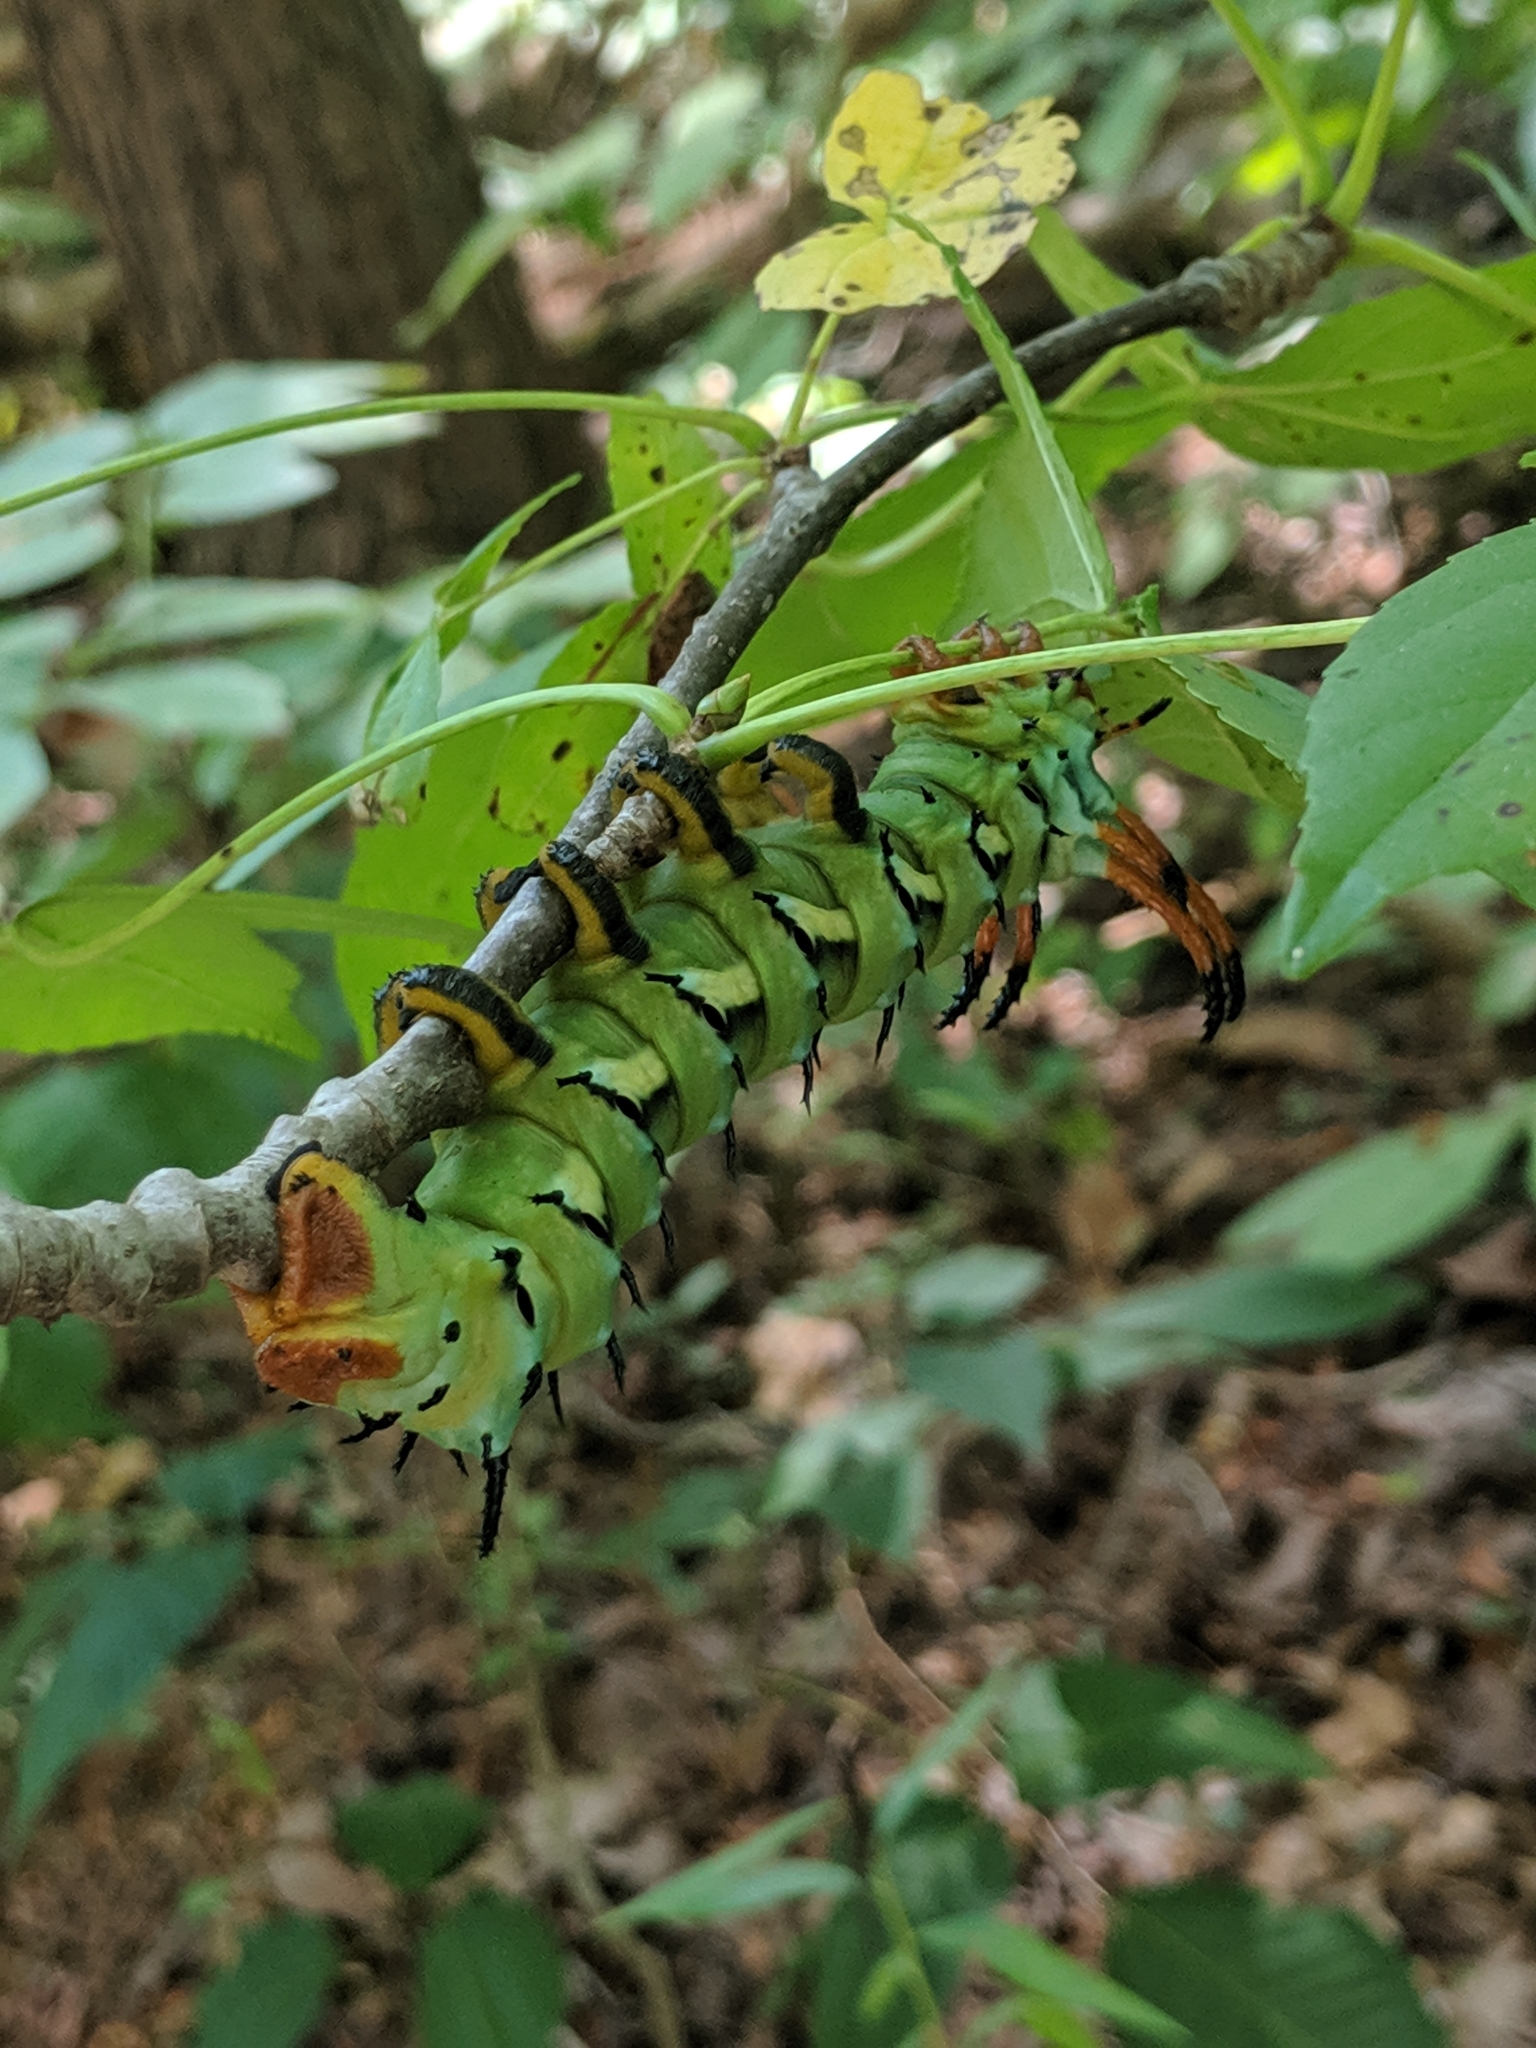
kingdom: Animalia
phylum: Arthropoda
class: Insecta
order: Lepidoptera
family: Saturniidae
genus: Citheronia
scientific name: Citheronia regalis
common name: Hickory horned devil
